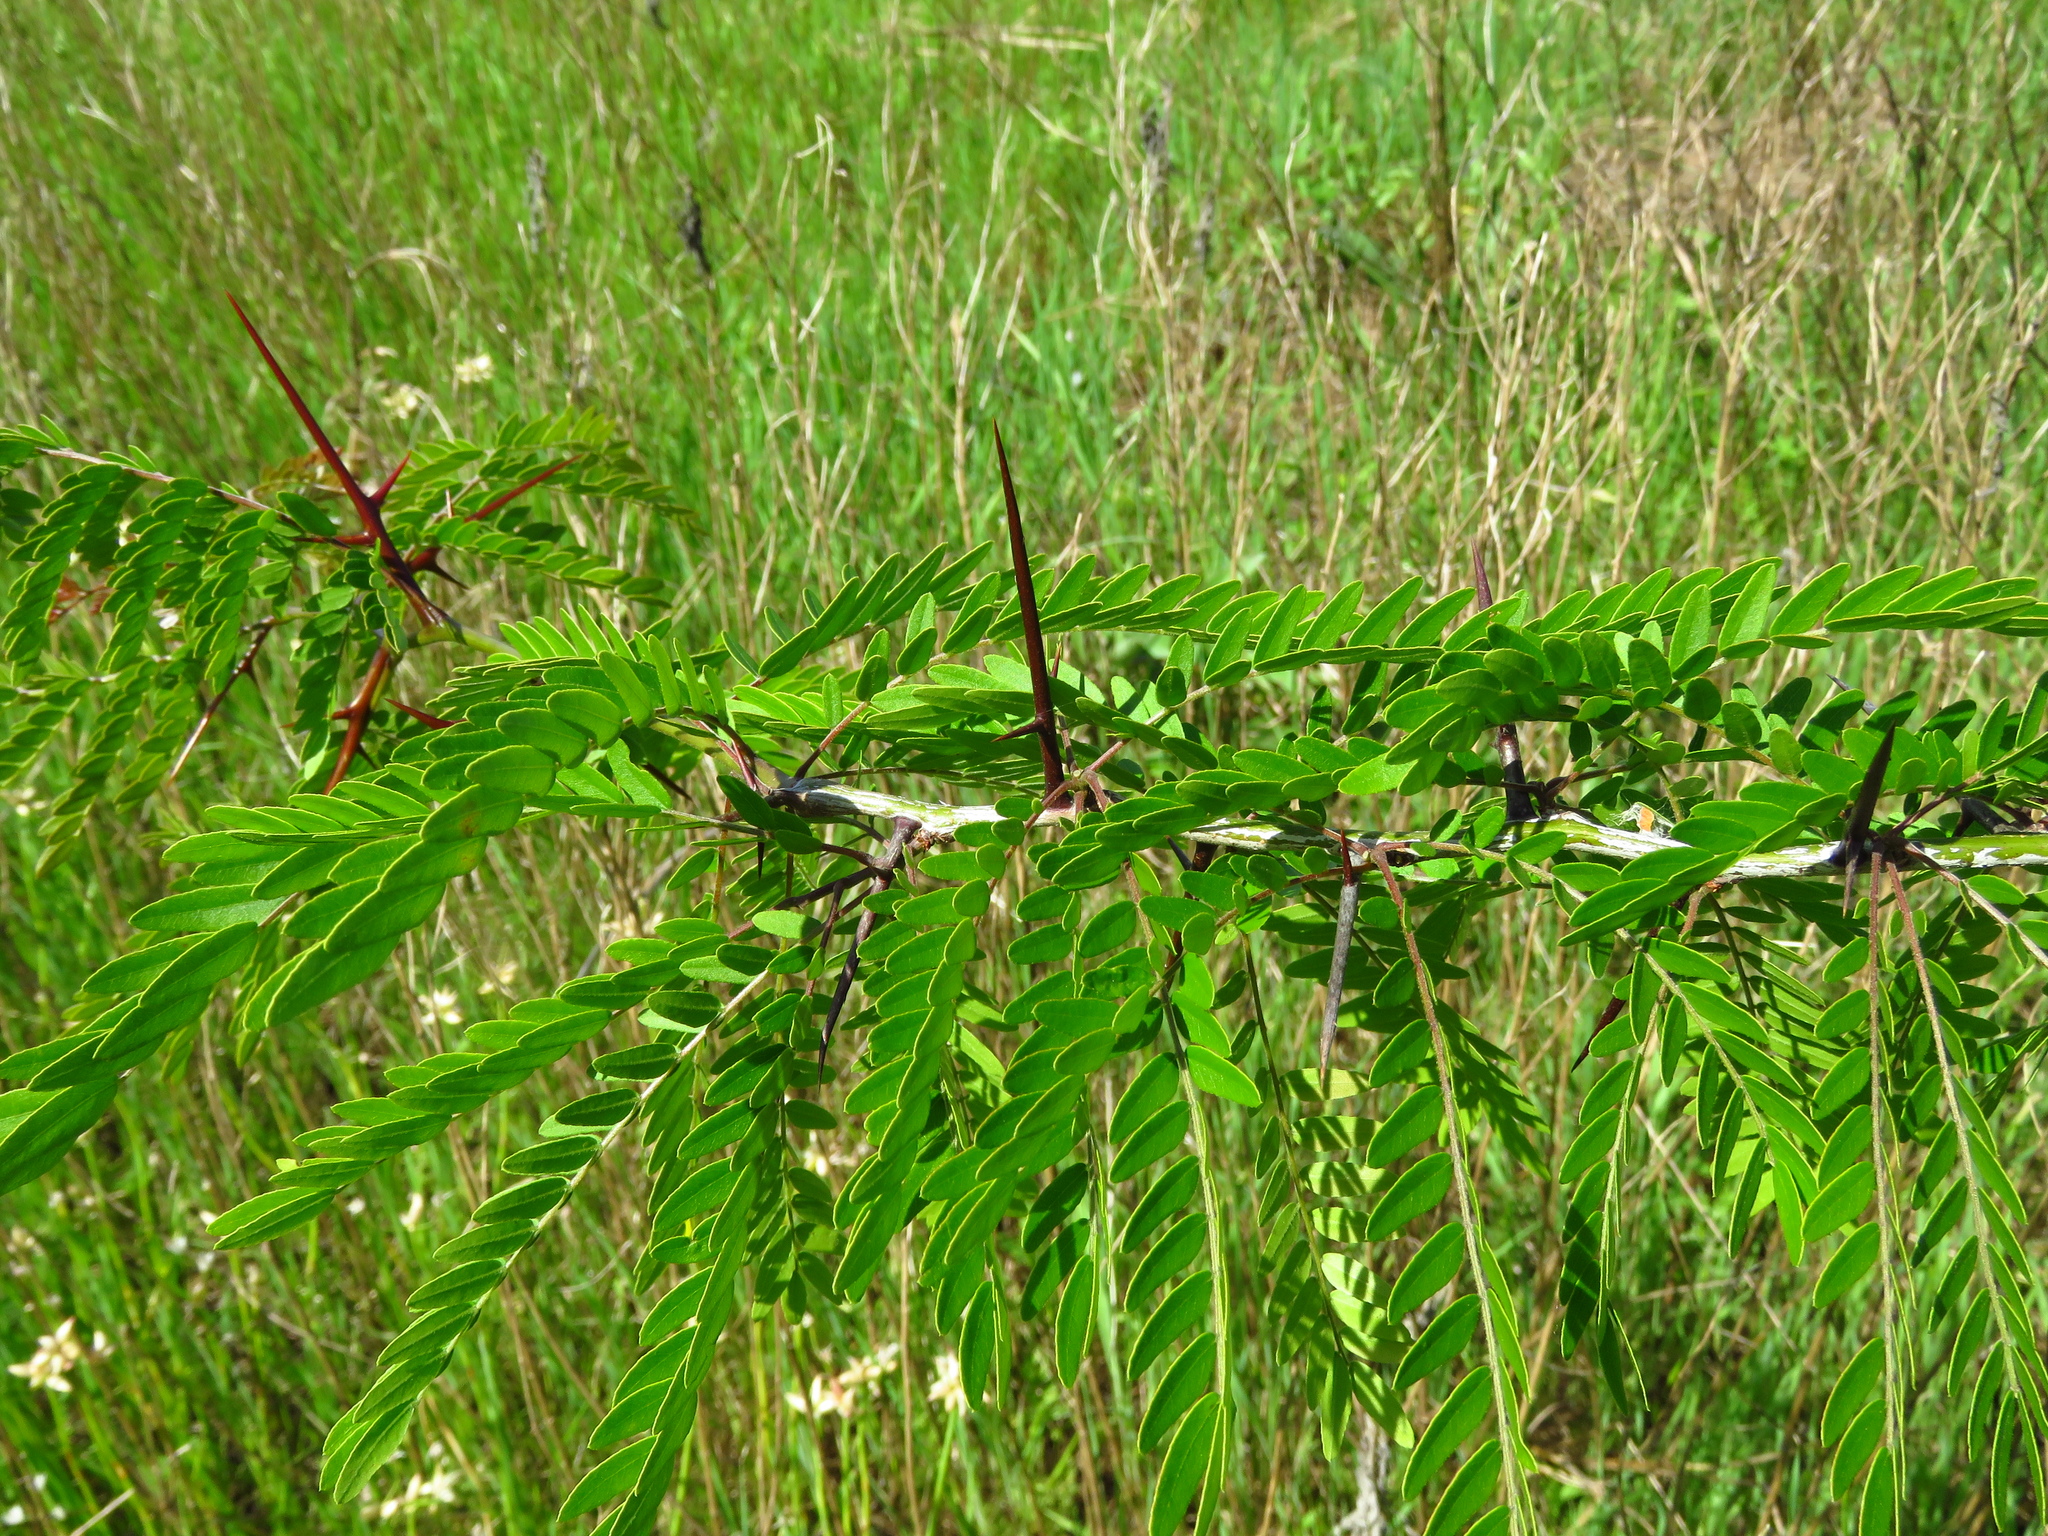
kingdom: Plantae
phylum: Tracheophyta
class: Magnoliopsida
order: Fabales
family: Fabaceae
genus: Gleditsia
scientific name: Gleditsia triacanthos
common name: Common honeylocust
